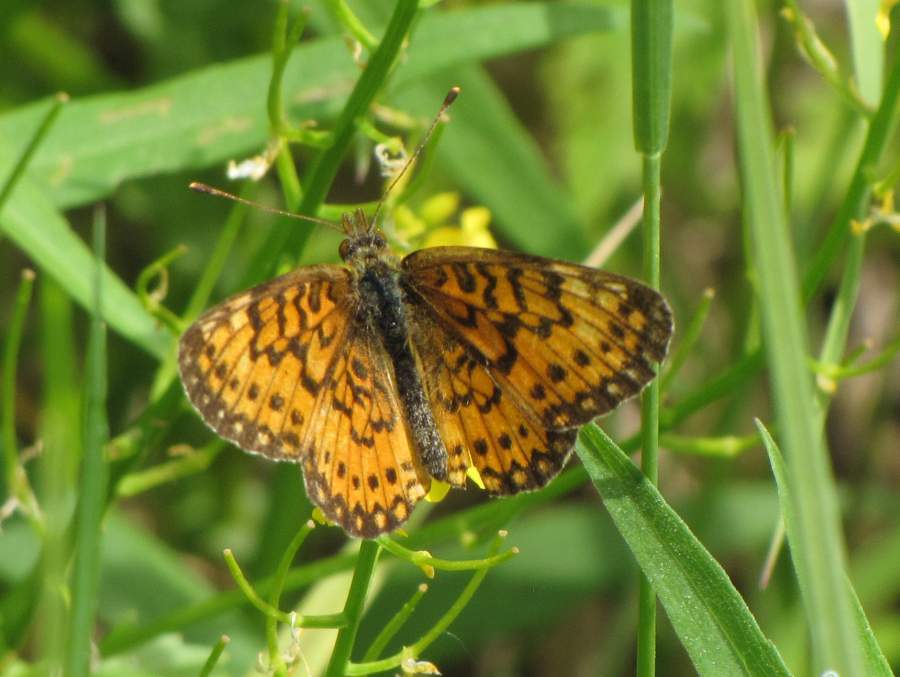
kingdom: Animalia
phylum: Arthropoda
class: Insecta
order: Lepidoptera
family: Nymphalidae
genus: Boloria
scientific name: Boloria
